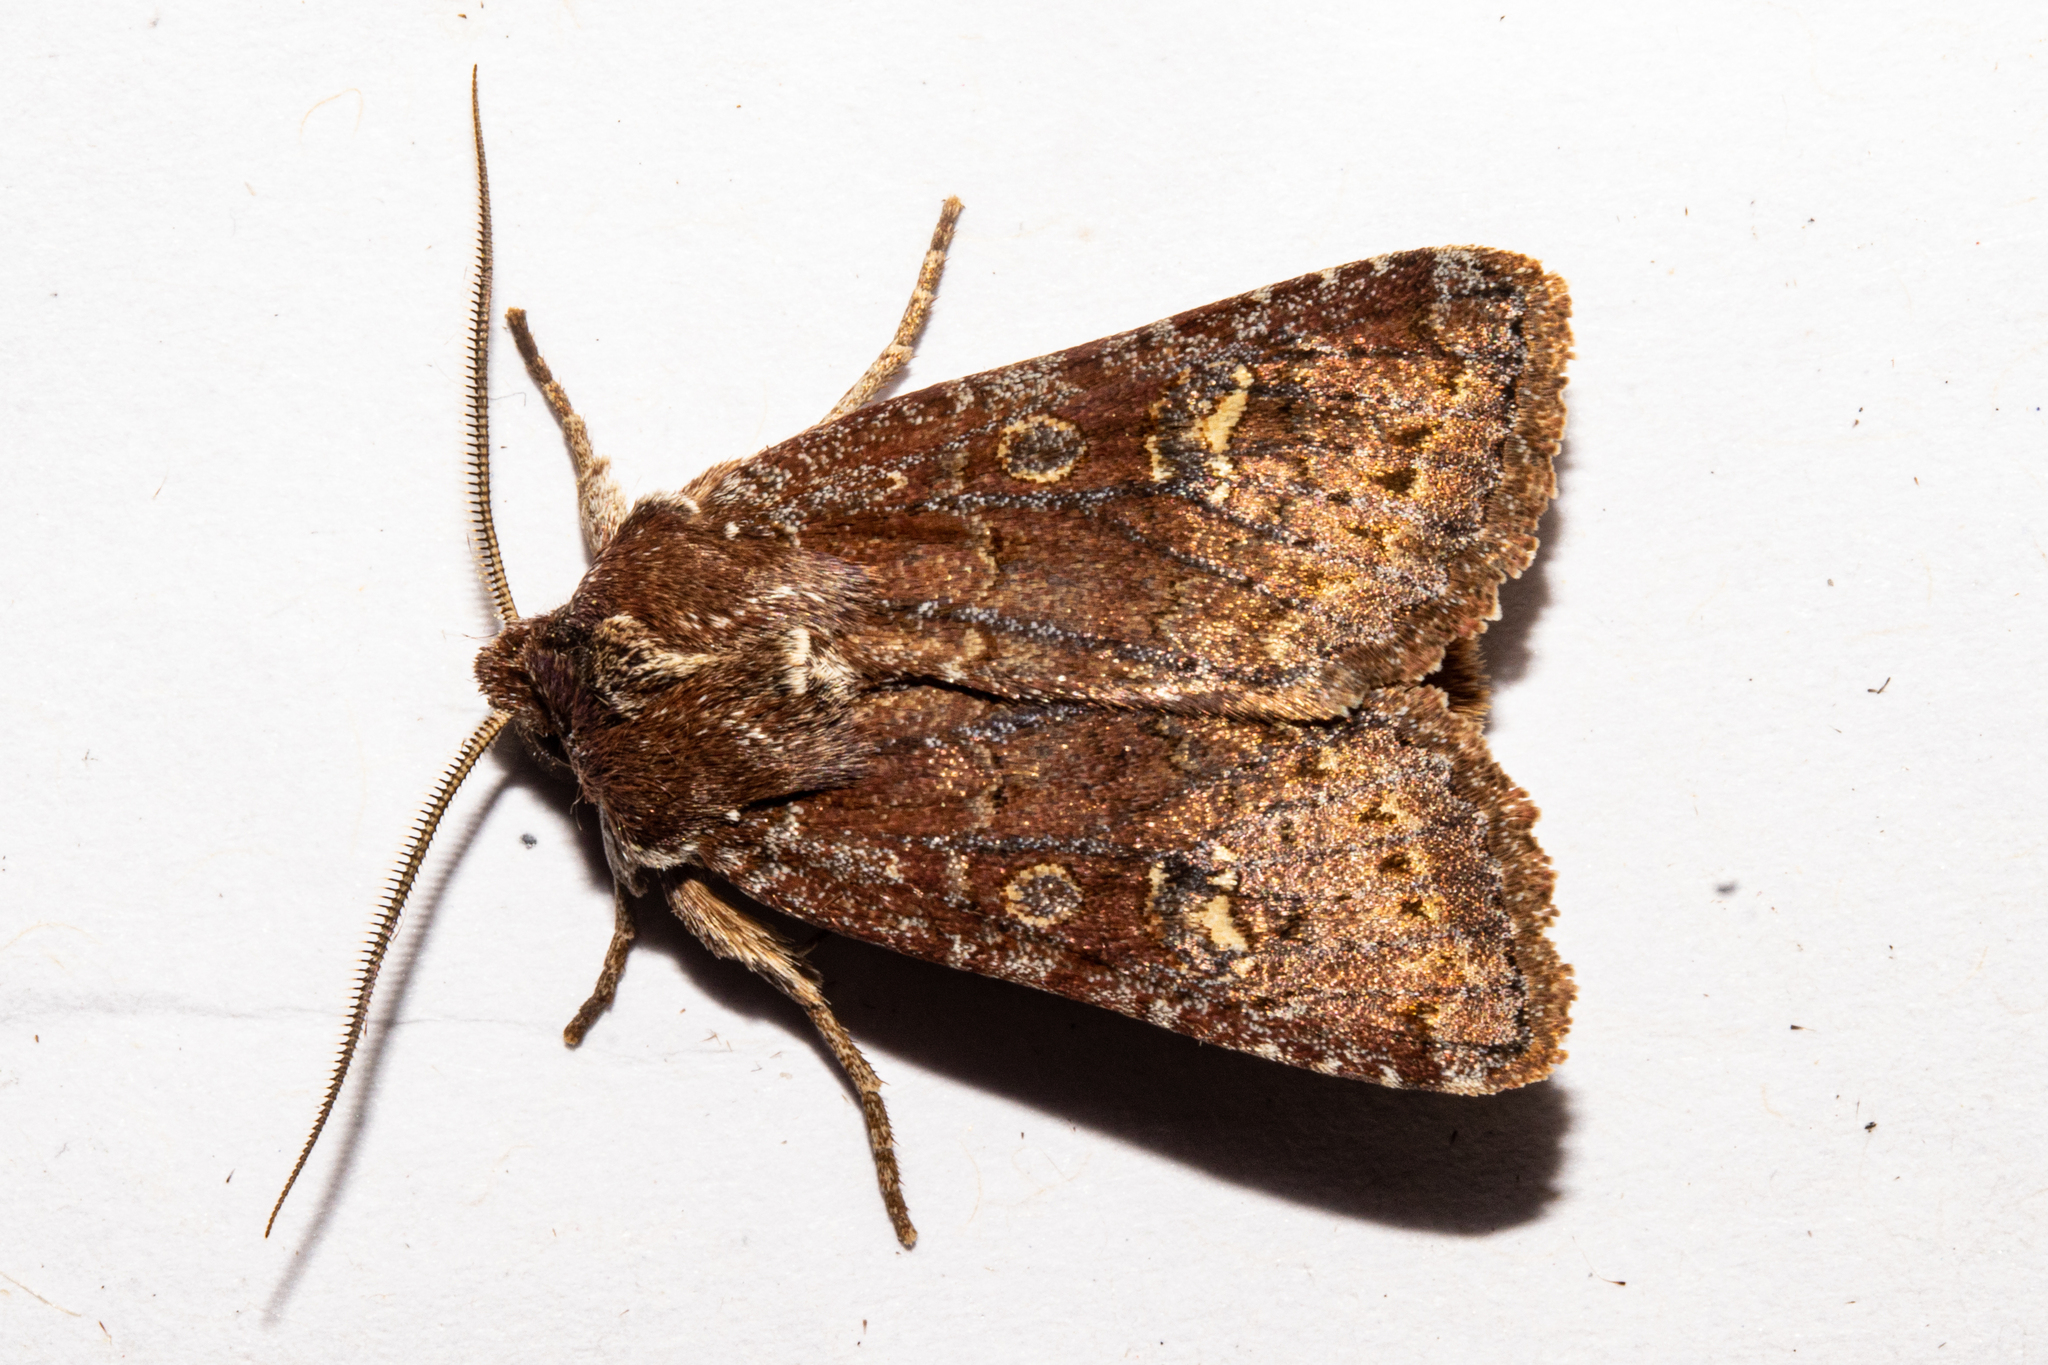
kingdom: Animalia
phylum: Arthropoda
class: Insecta
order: Lepidoptera
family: Noctuidae
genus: Ichneutica
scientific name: Ichneutica agorastis
